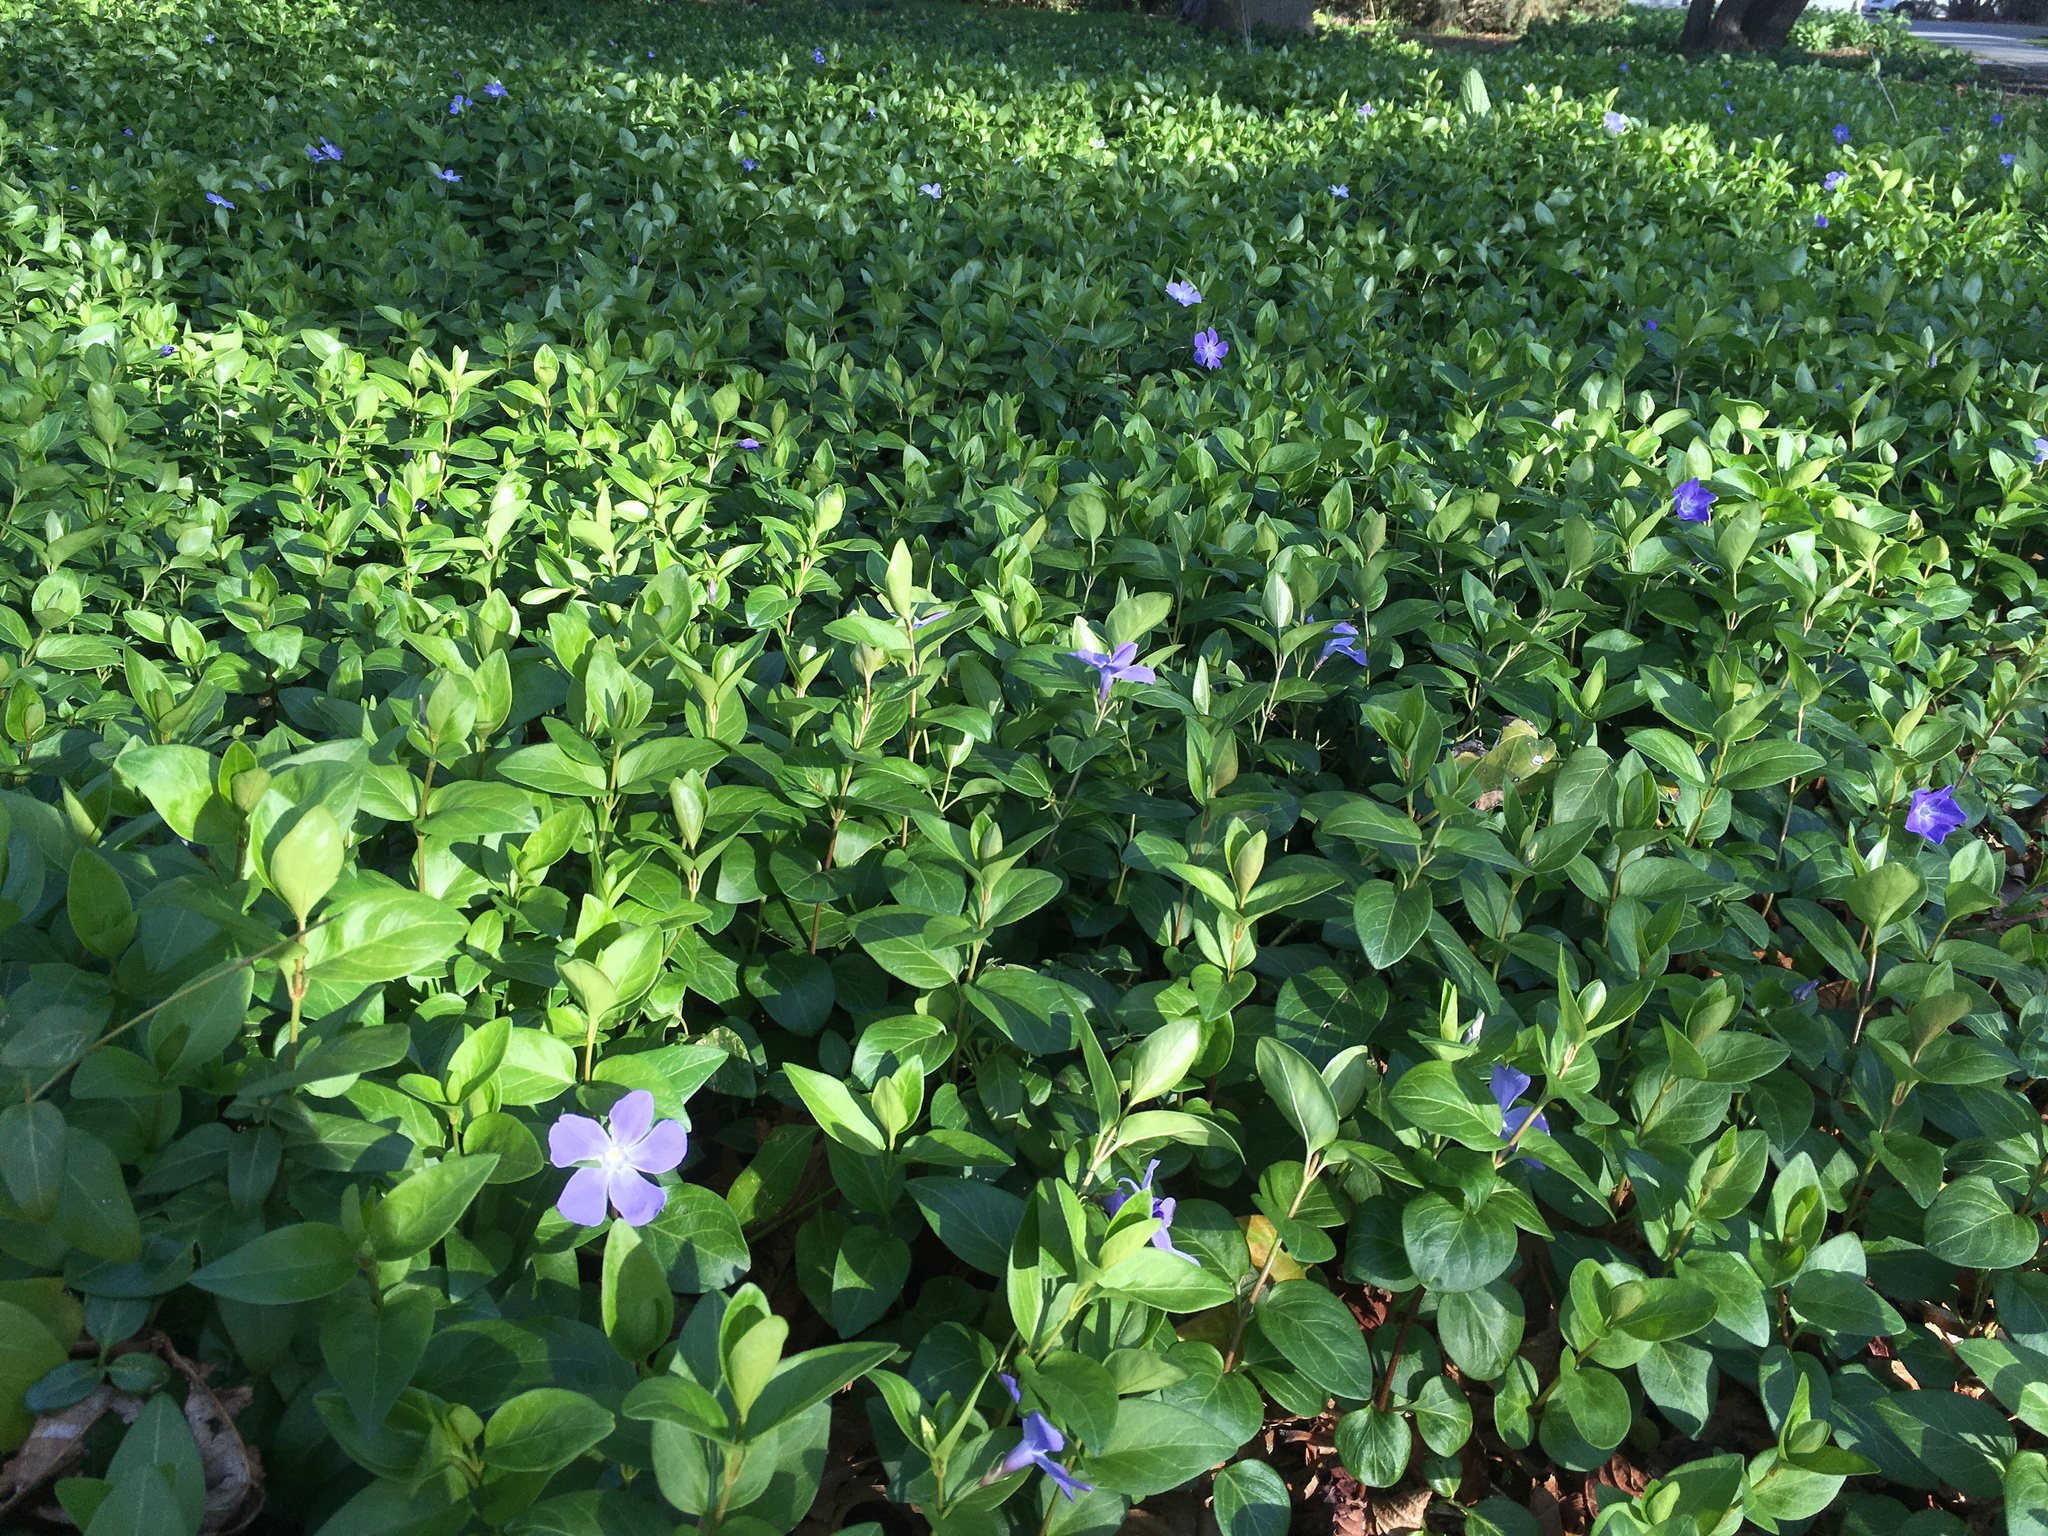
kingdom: Plantae
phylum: Tracheophyta
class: Magnoliopsida
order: Gentianales
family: Apocynaceae
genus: Vinca
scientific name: Vinca major
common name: Greater periwinkle
